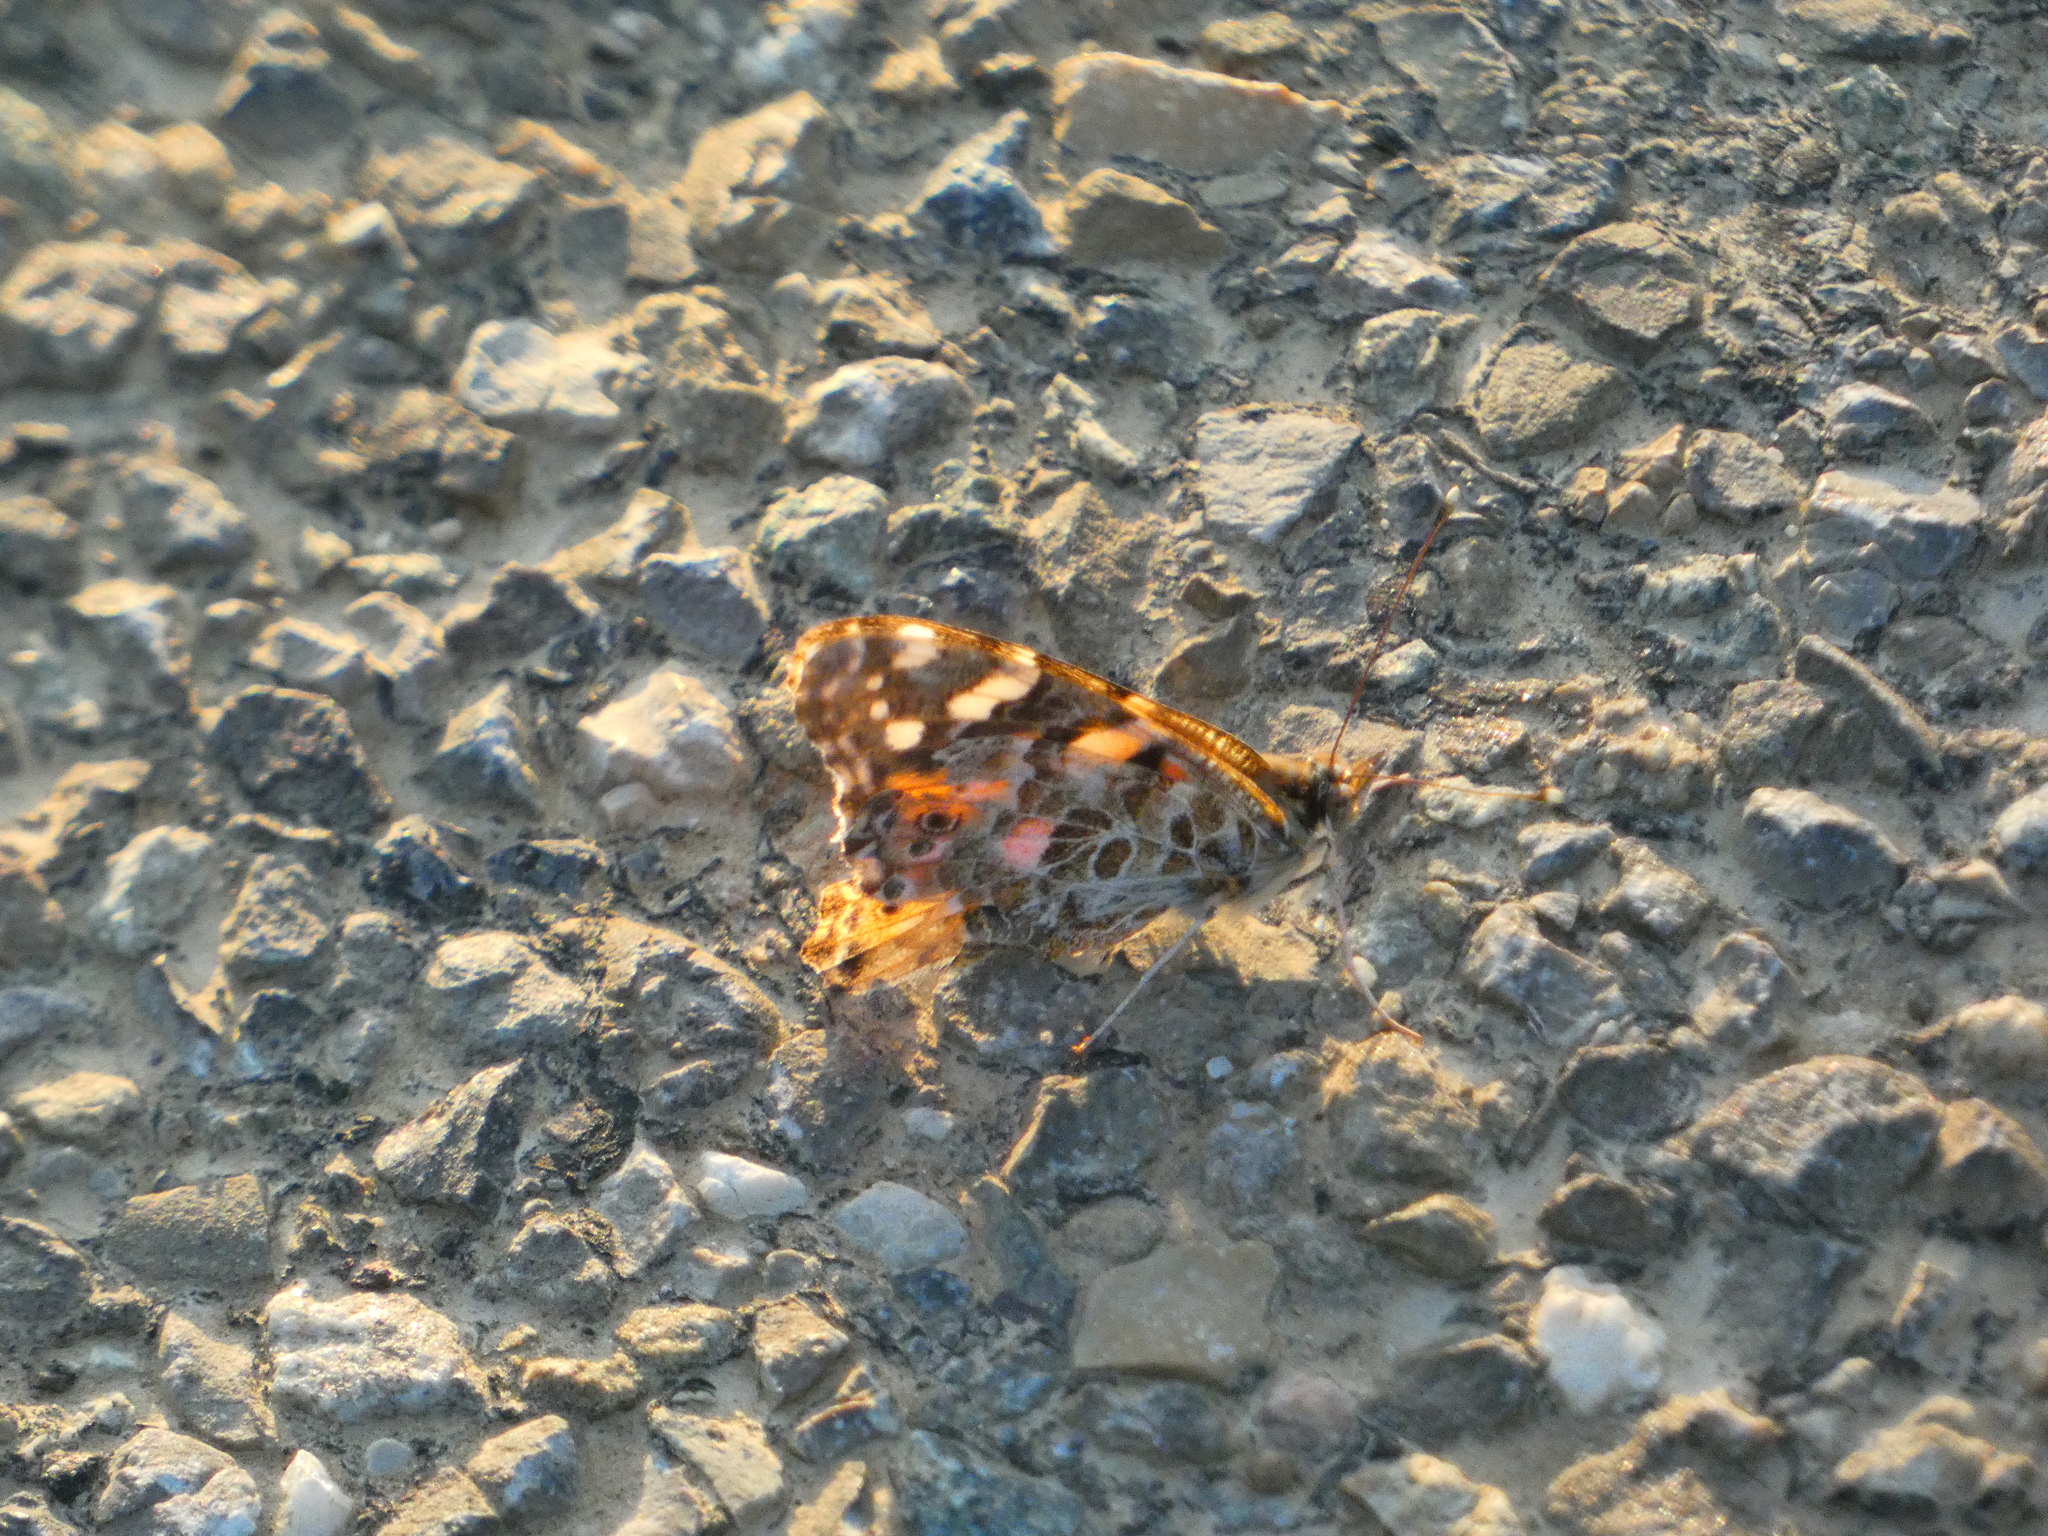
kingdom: Animalia
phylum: Arthropoda
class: Insecta
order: Lepidoptera
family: Nymphalidae
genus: Vanessa
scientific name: Vanessa cardui
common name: Painted lady
